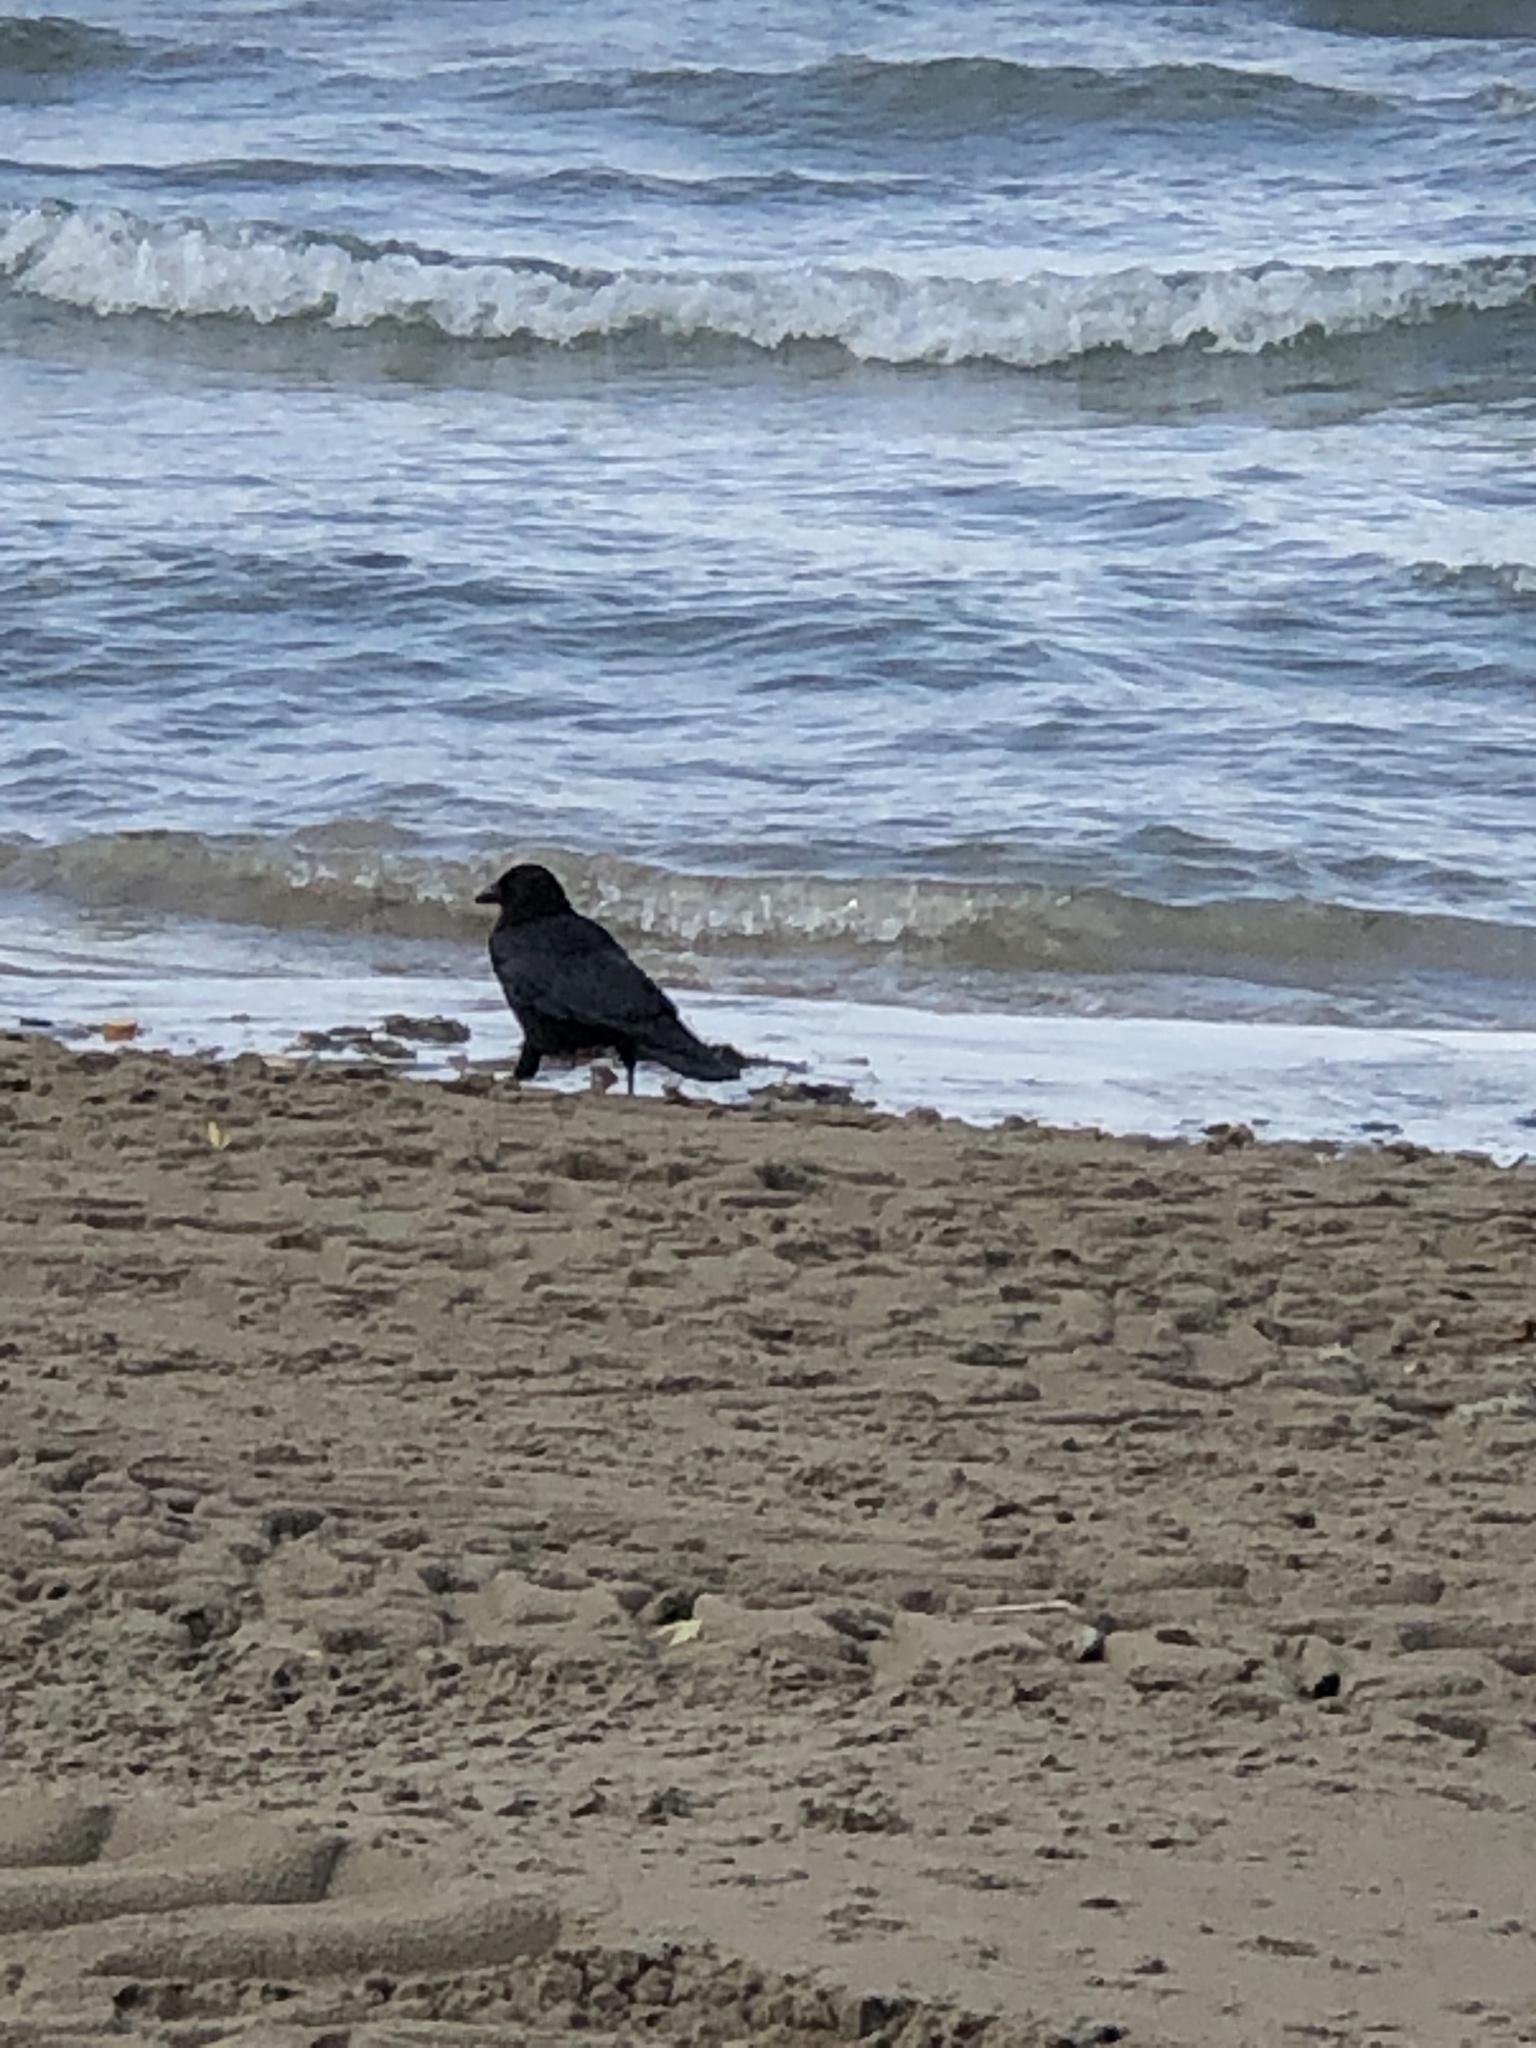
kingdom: Animalia
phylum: Chordata
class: Aves
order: Passeriformes
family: Corvidae
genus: Corvus
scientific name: Corvus brachyrhynchos
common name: American crow
